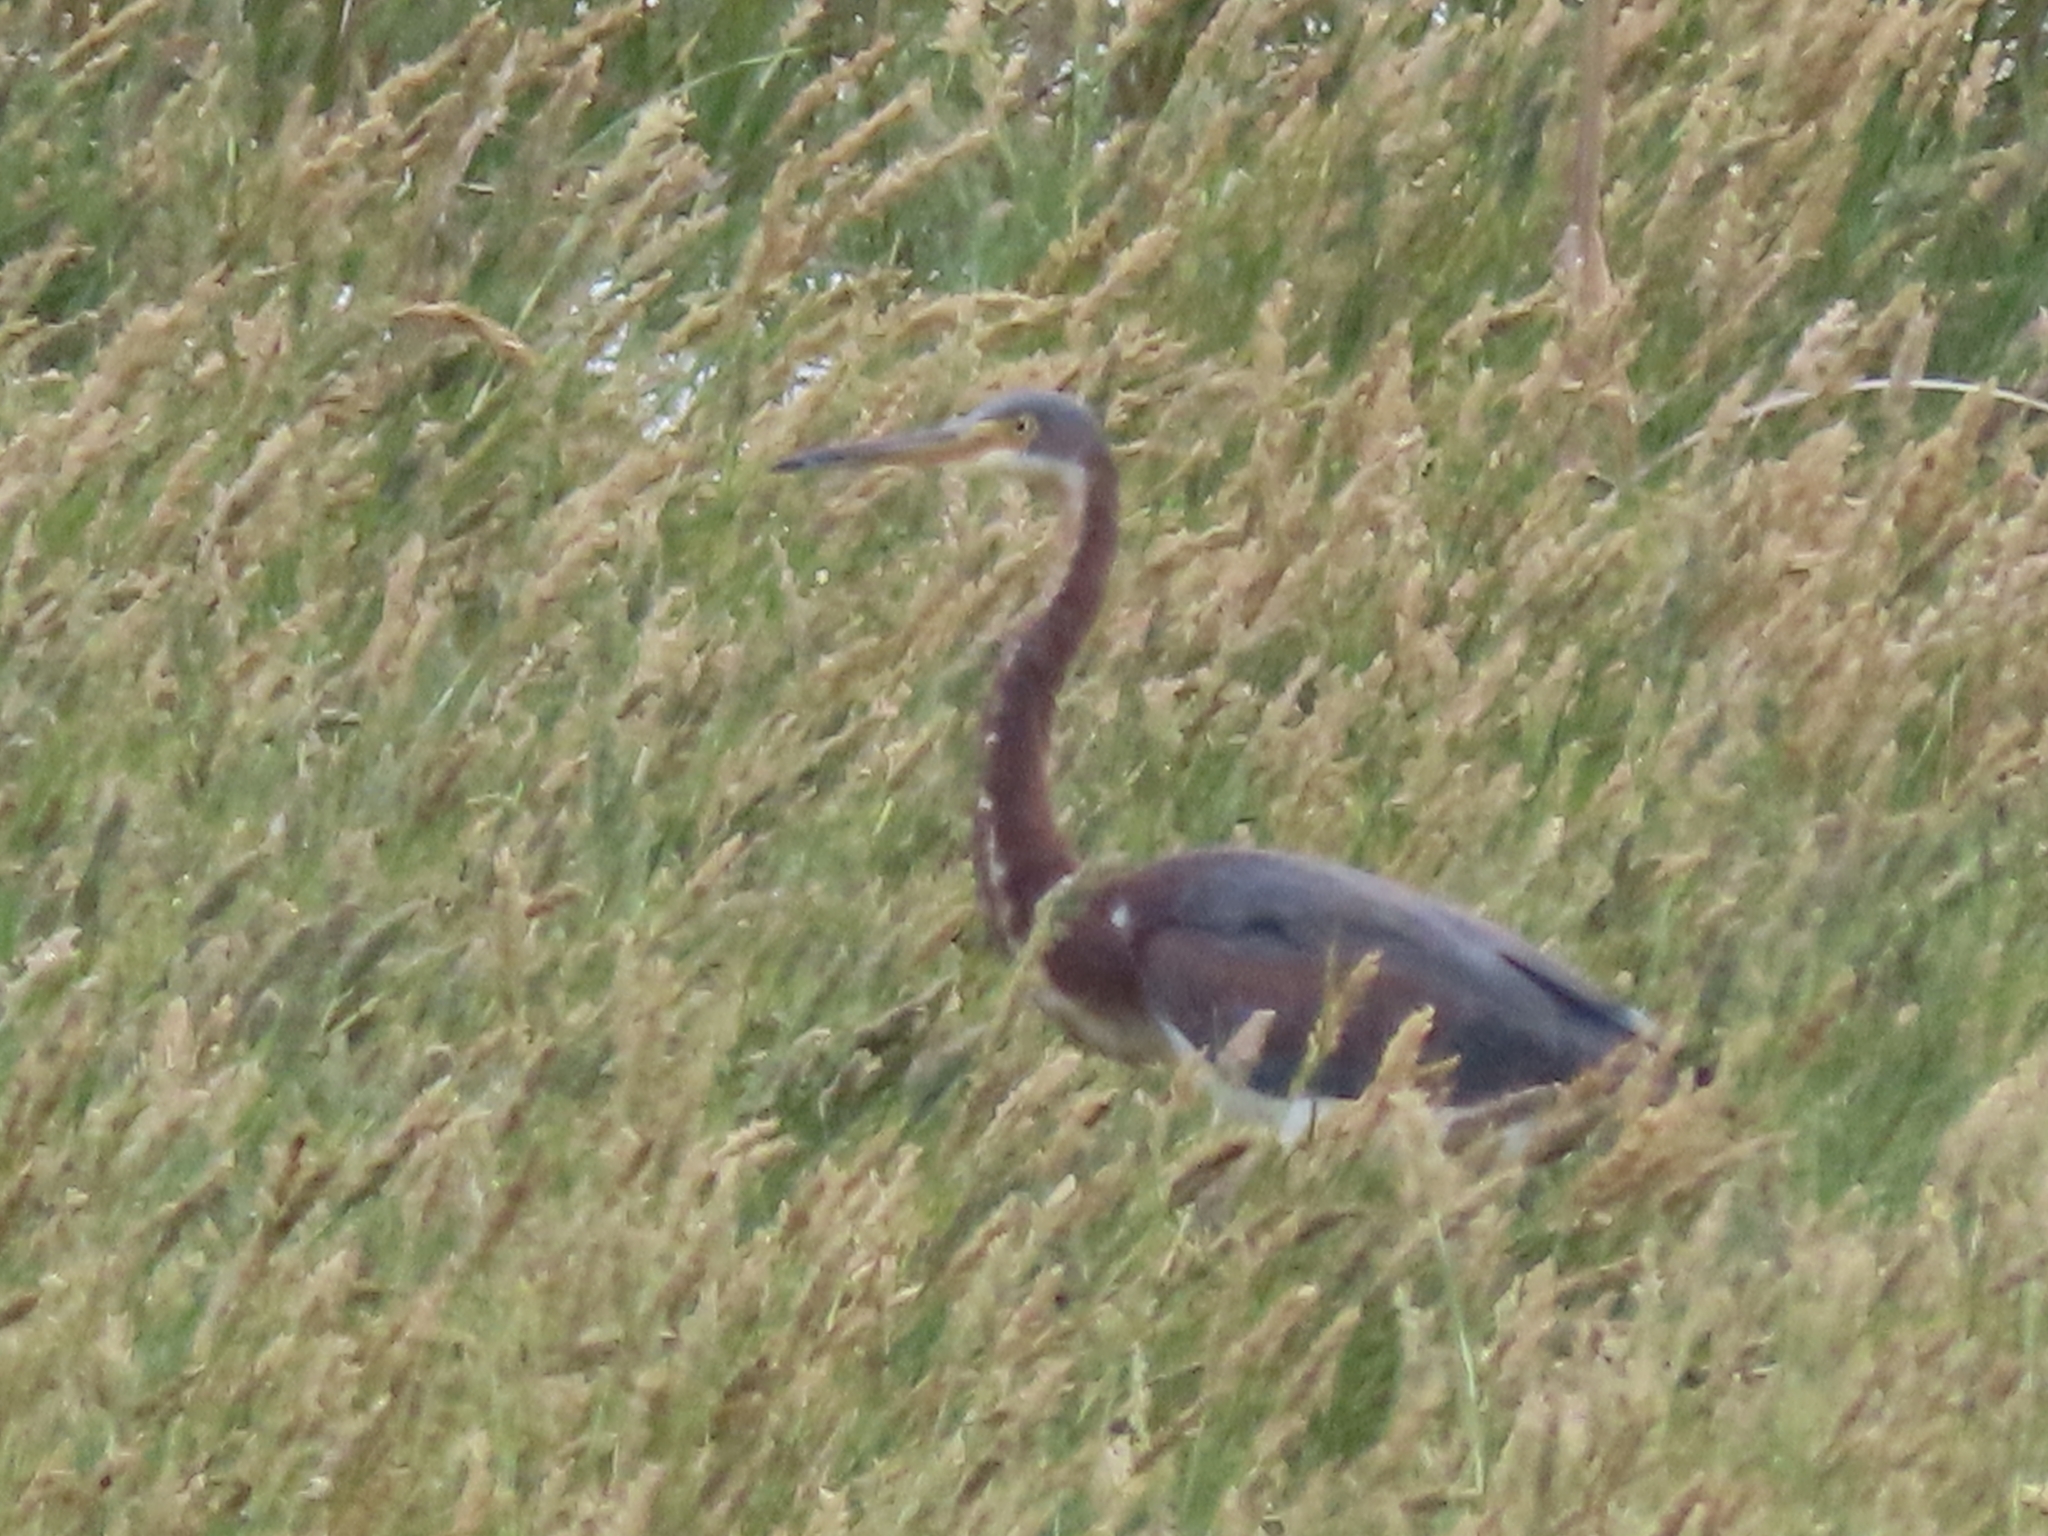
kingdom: Animalia
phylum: Chordata
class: Aves
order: Pelecaniformes
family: Ardeidae
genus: Egretta
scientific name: Egretta tricolor
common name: Tricolored heron
